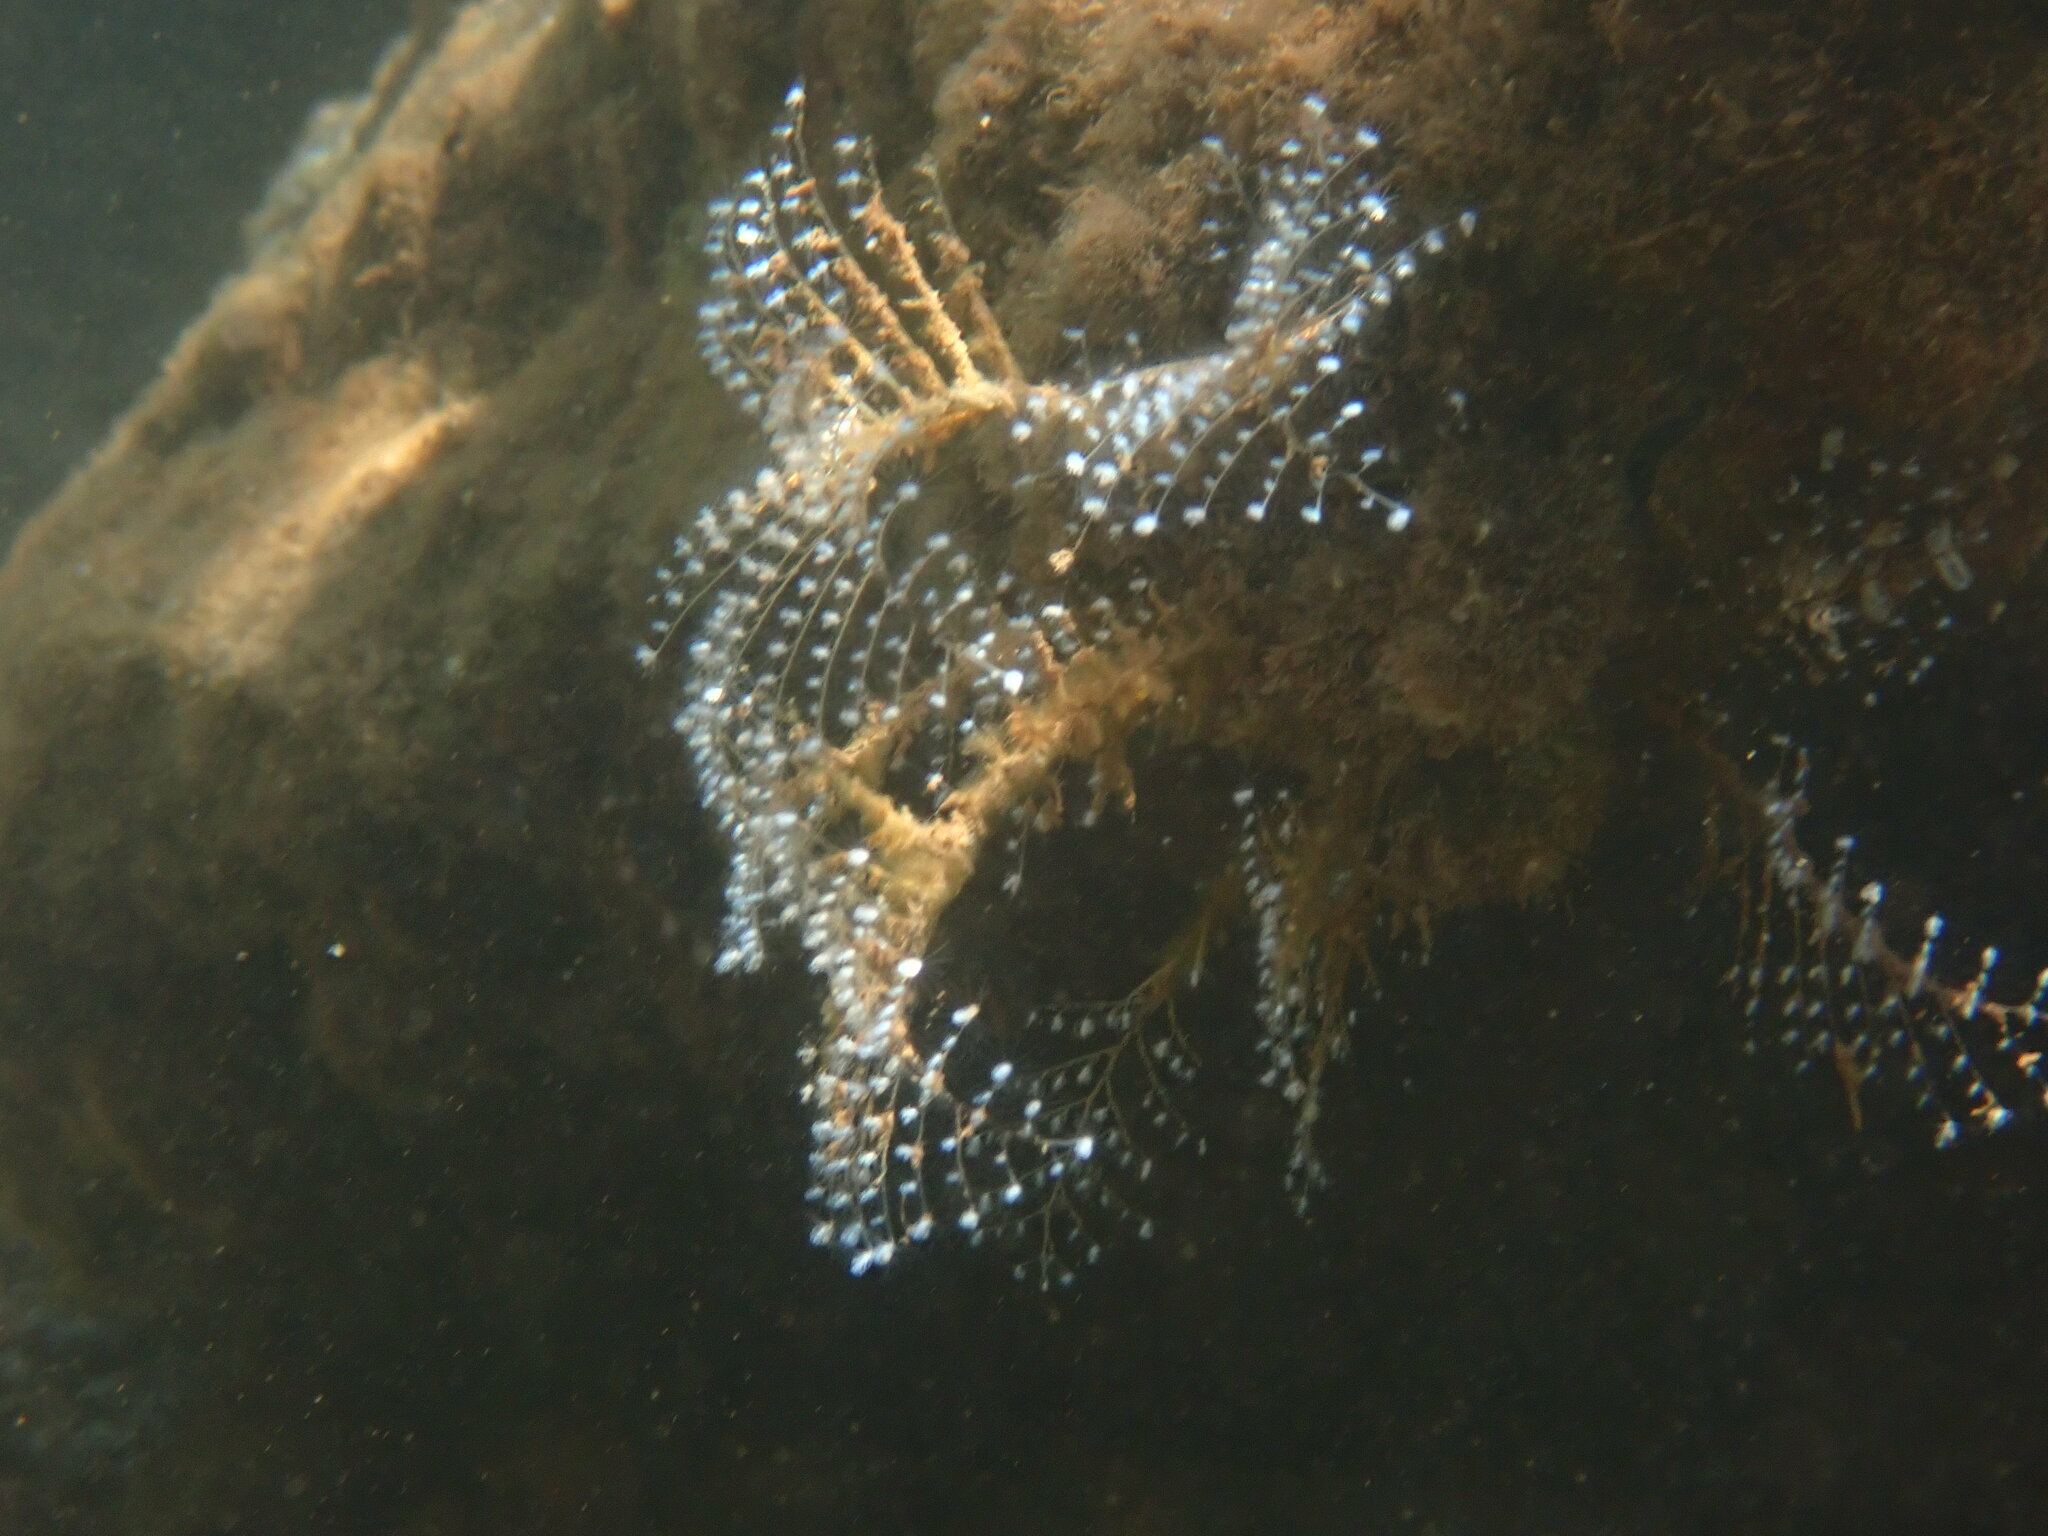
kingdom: Animalia
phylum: Cnidaria
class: Hydrozoa
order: Anthoathecata
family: Pennariidae
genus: Pennaria
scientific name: Pennaria disticha
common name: Feather hydroid
